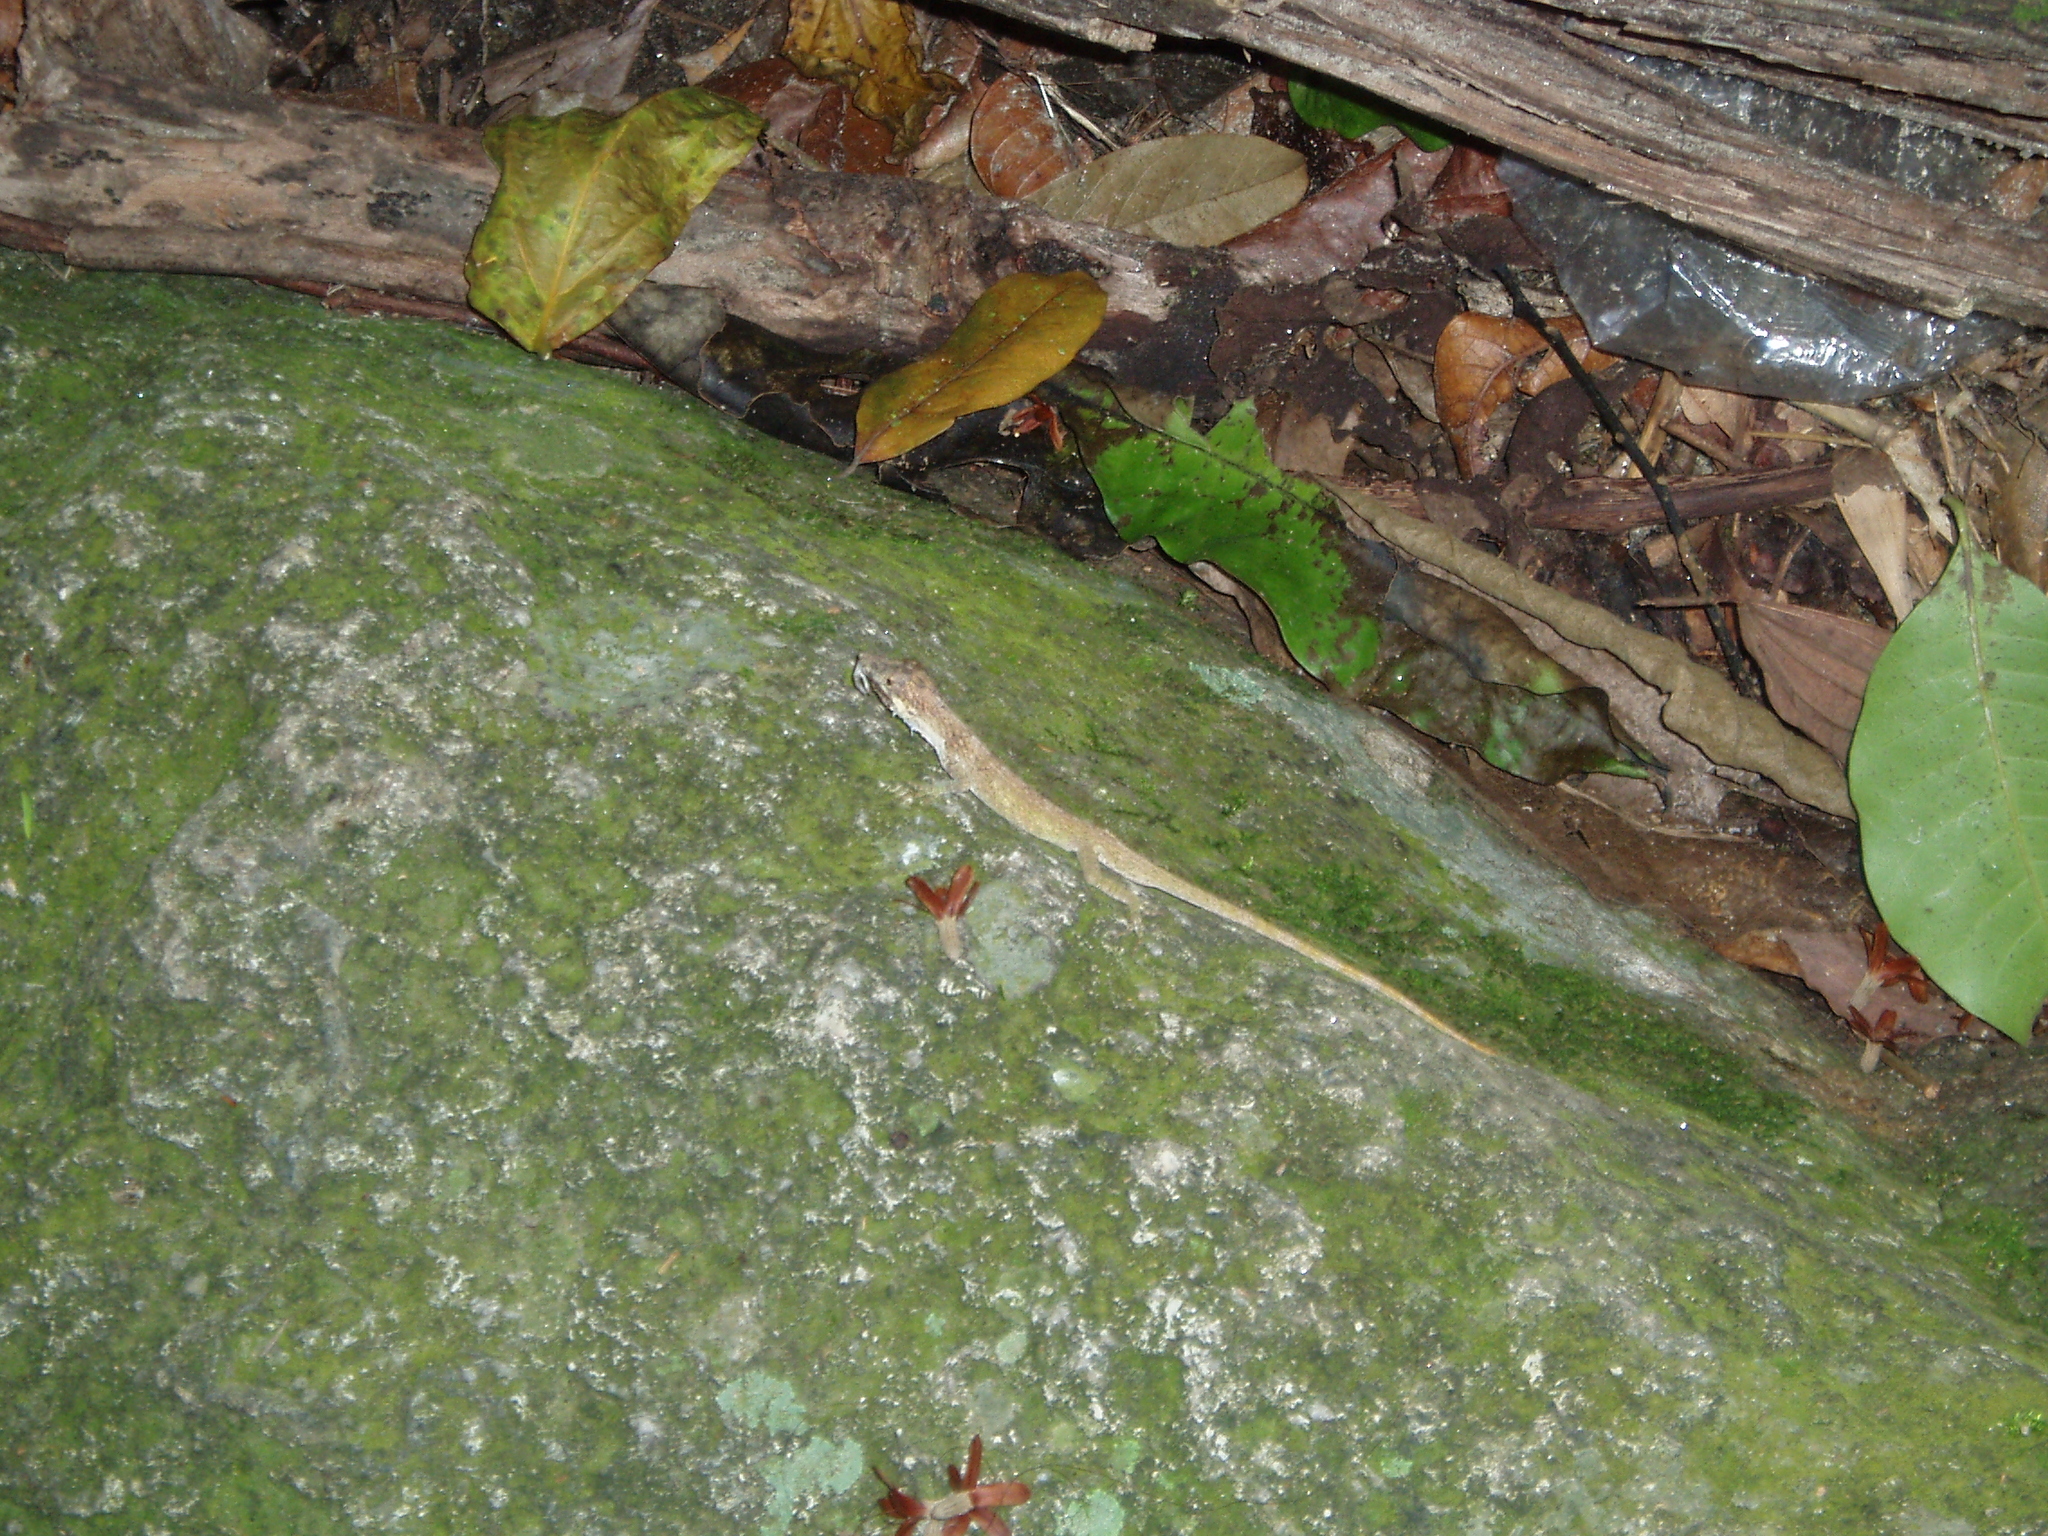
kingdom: Animalia
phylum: Chordata
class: Squamata
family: Dactyloidae
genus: Anolis
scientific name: Anolis tigrinus
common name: Tiger anole
